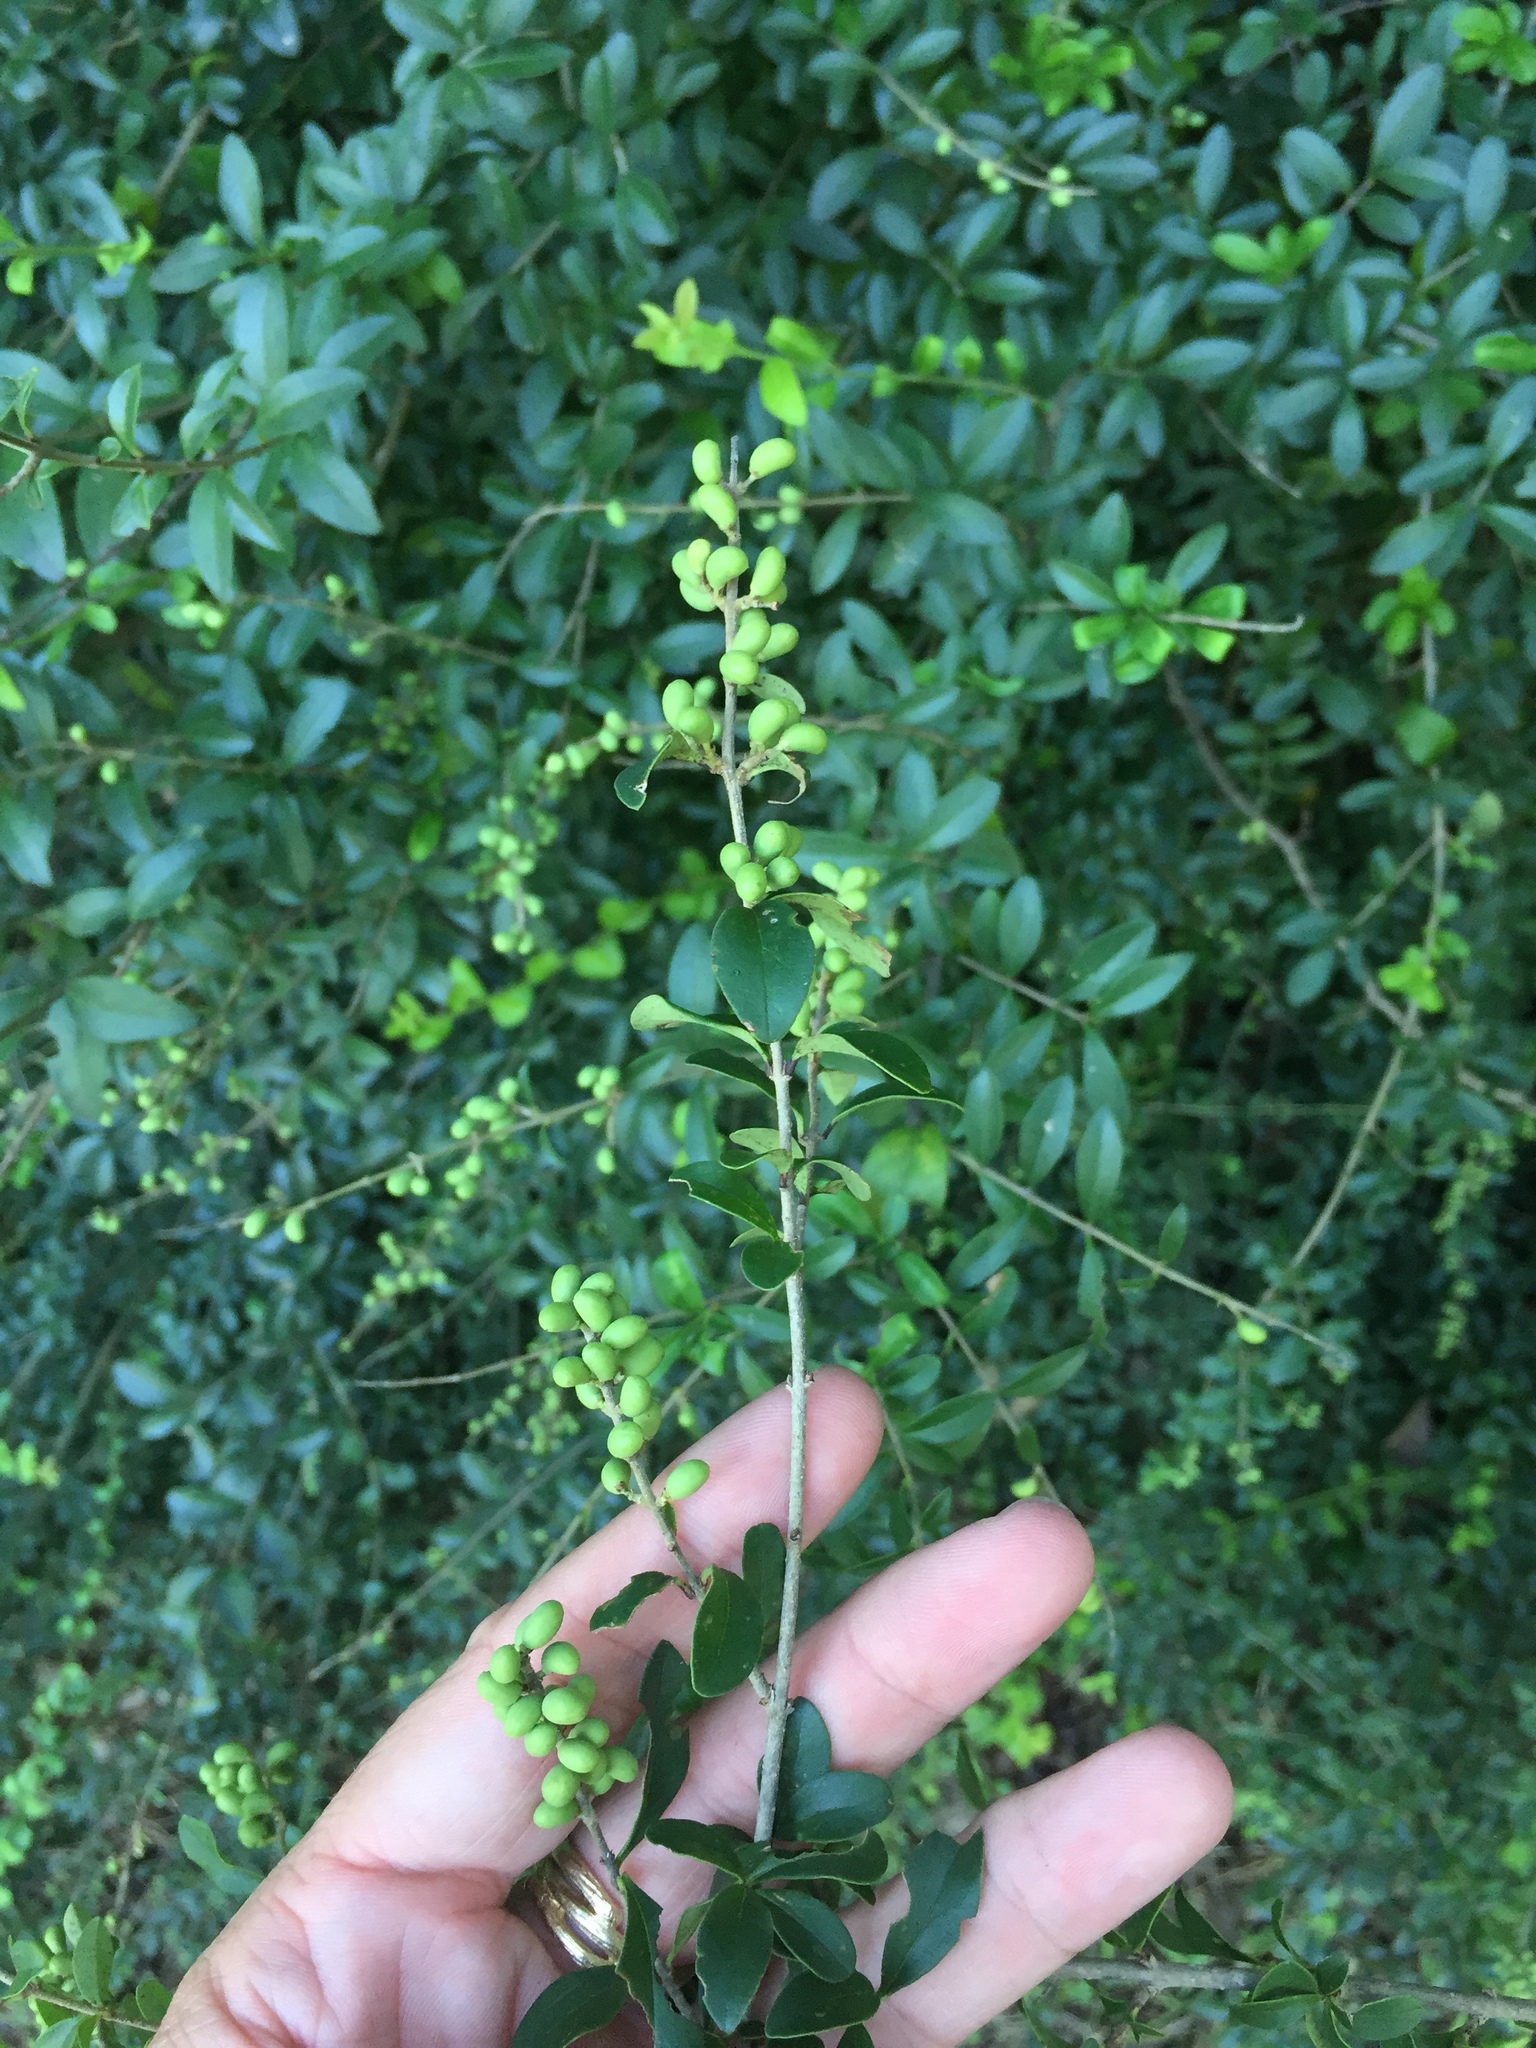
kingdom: Plantae
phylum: Tracheophyta
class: Magnoliopsida
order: Lamiales
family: Oleaceae
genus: Ligustrum
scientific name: Ligustrum quihoui
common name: Waxyleaf privet
